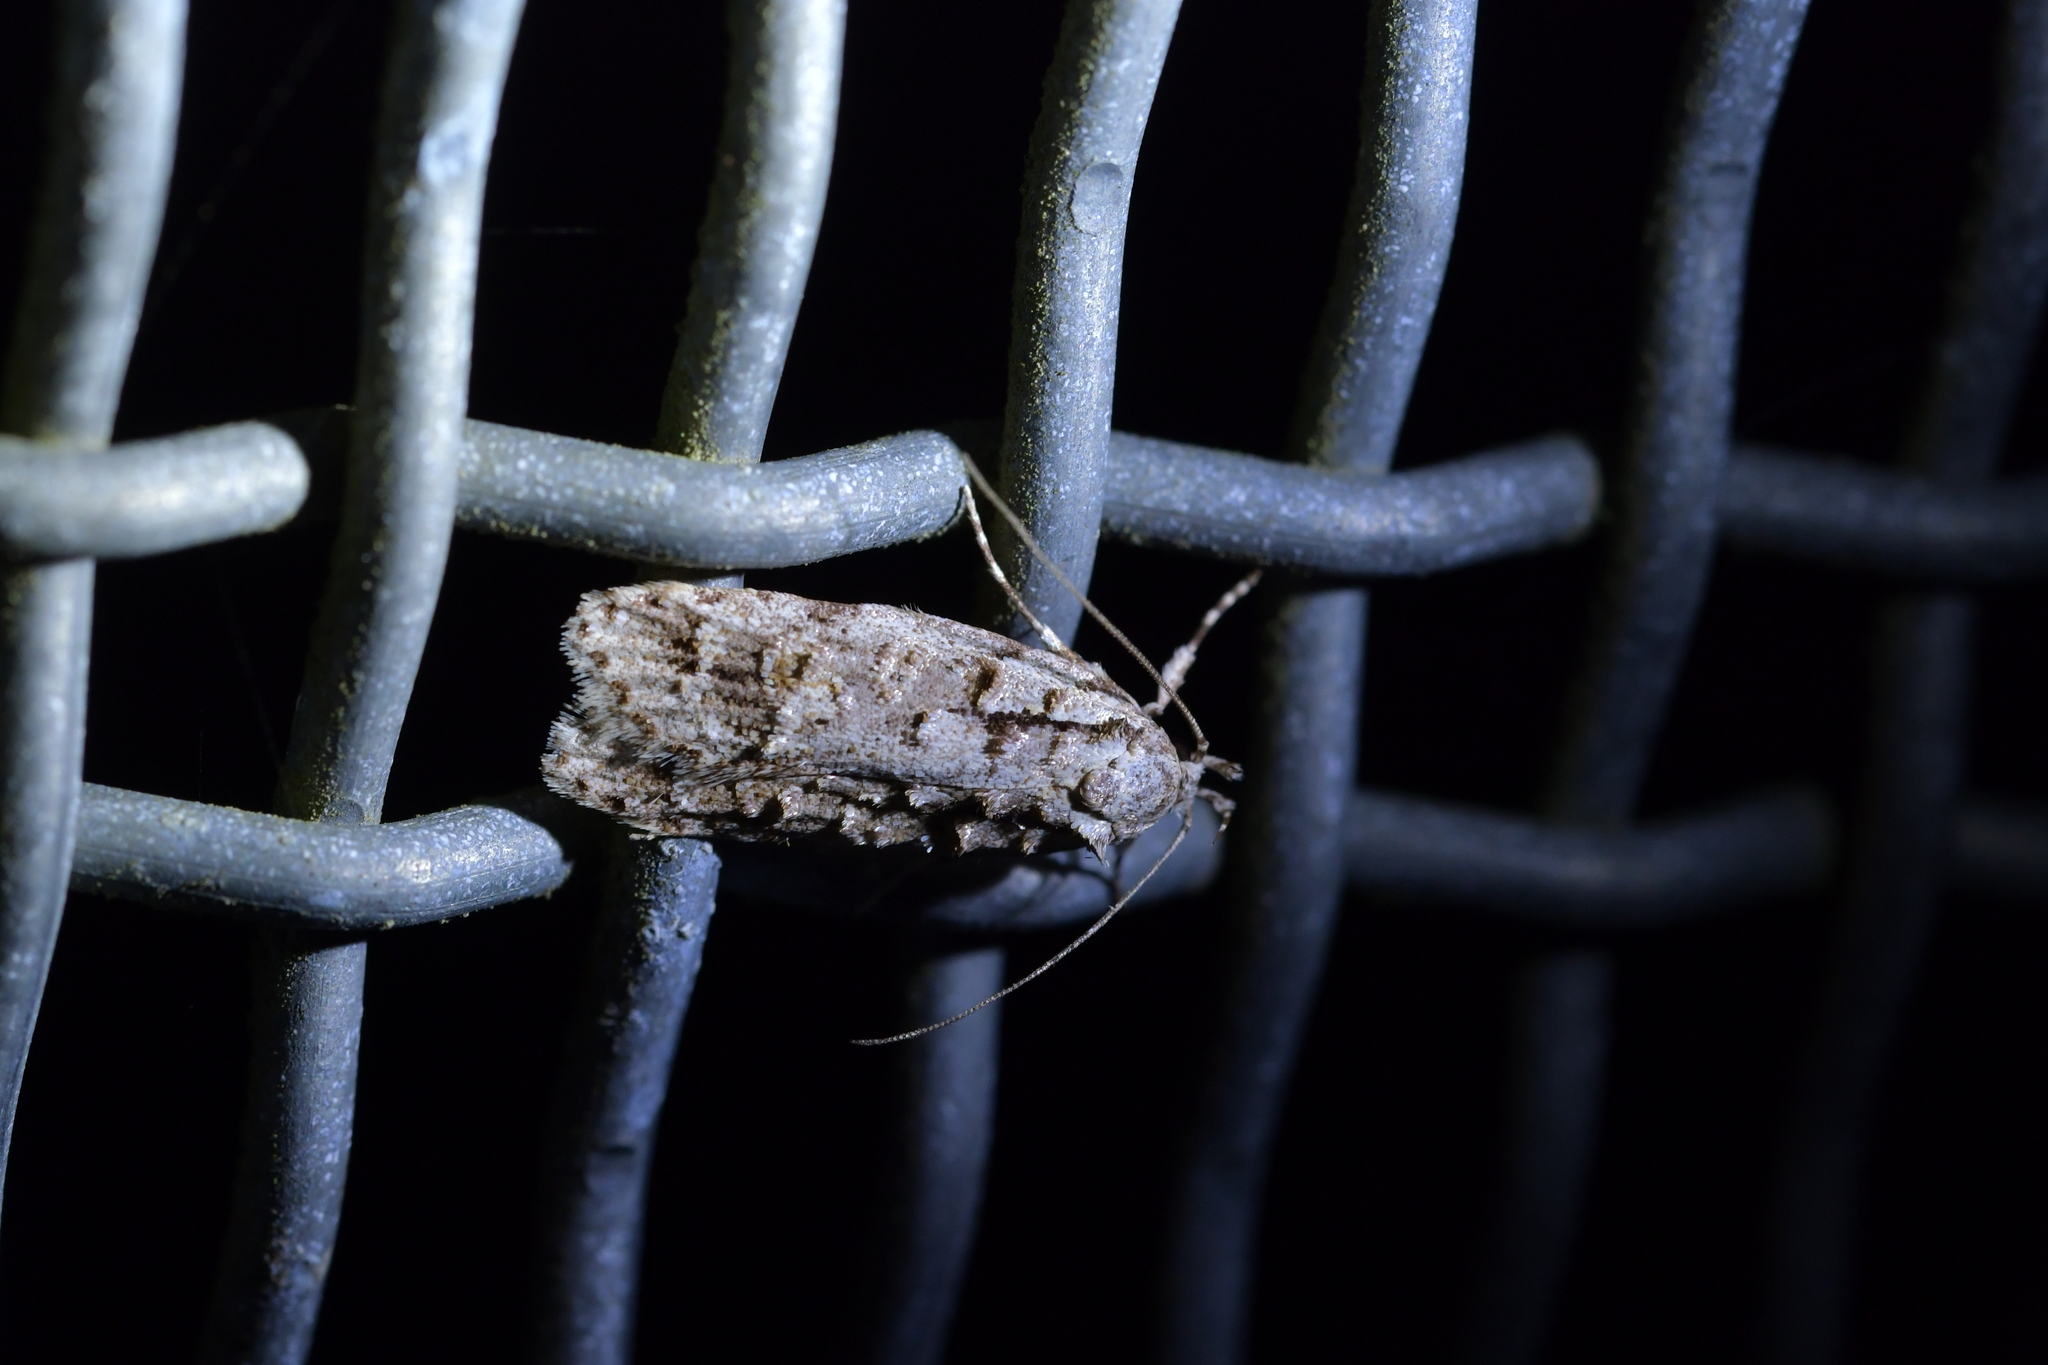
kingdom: Animalia
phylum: Arthropoda
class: Insecta
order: Lepidoptera
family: Oecophoridae
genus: Izatha
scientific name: Izatha attactella
